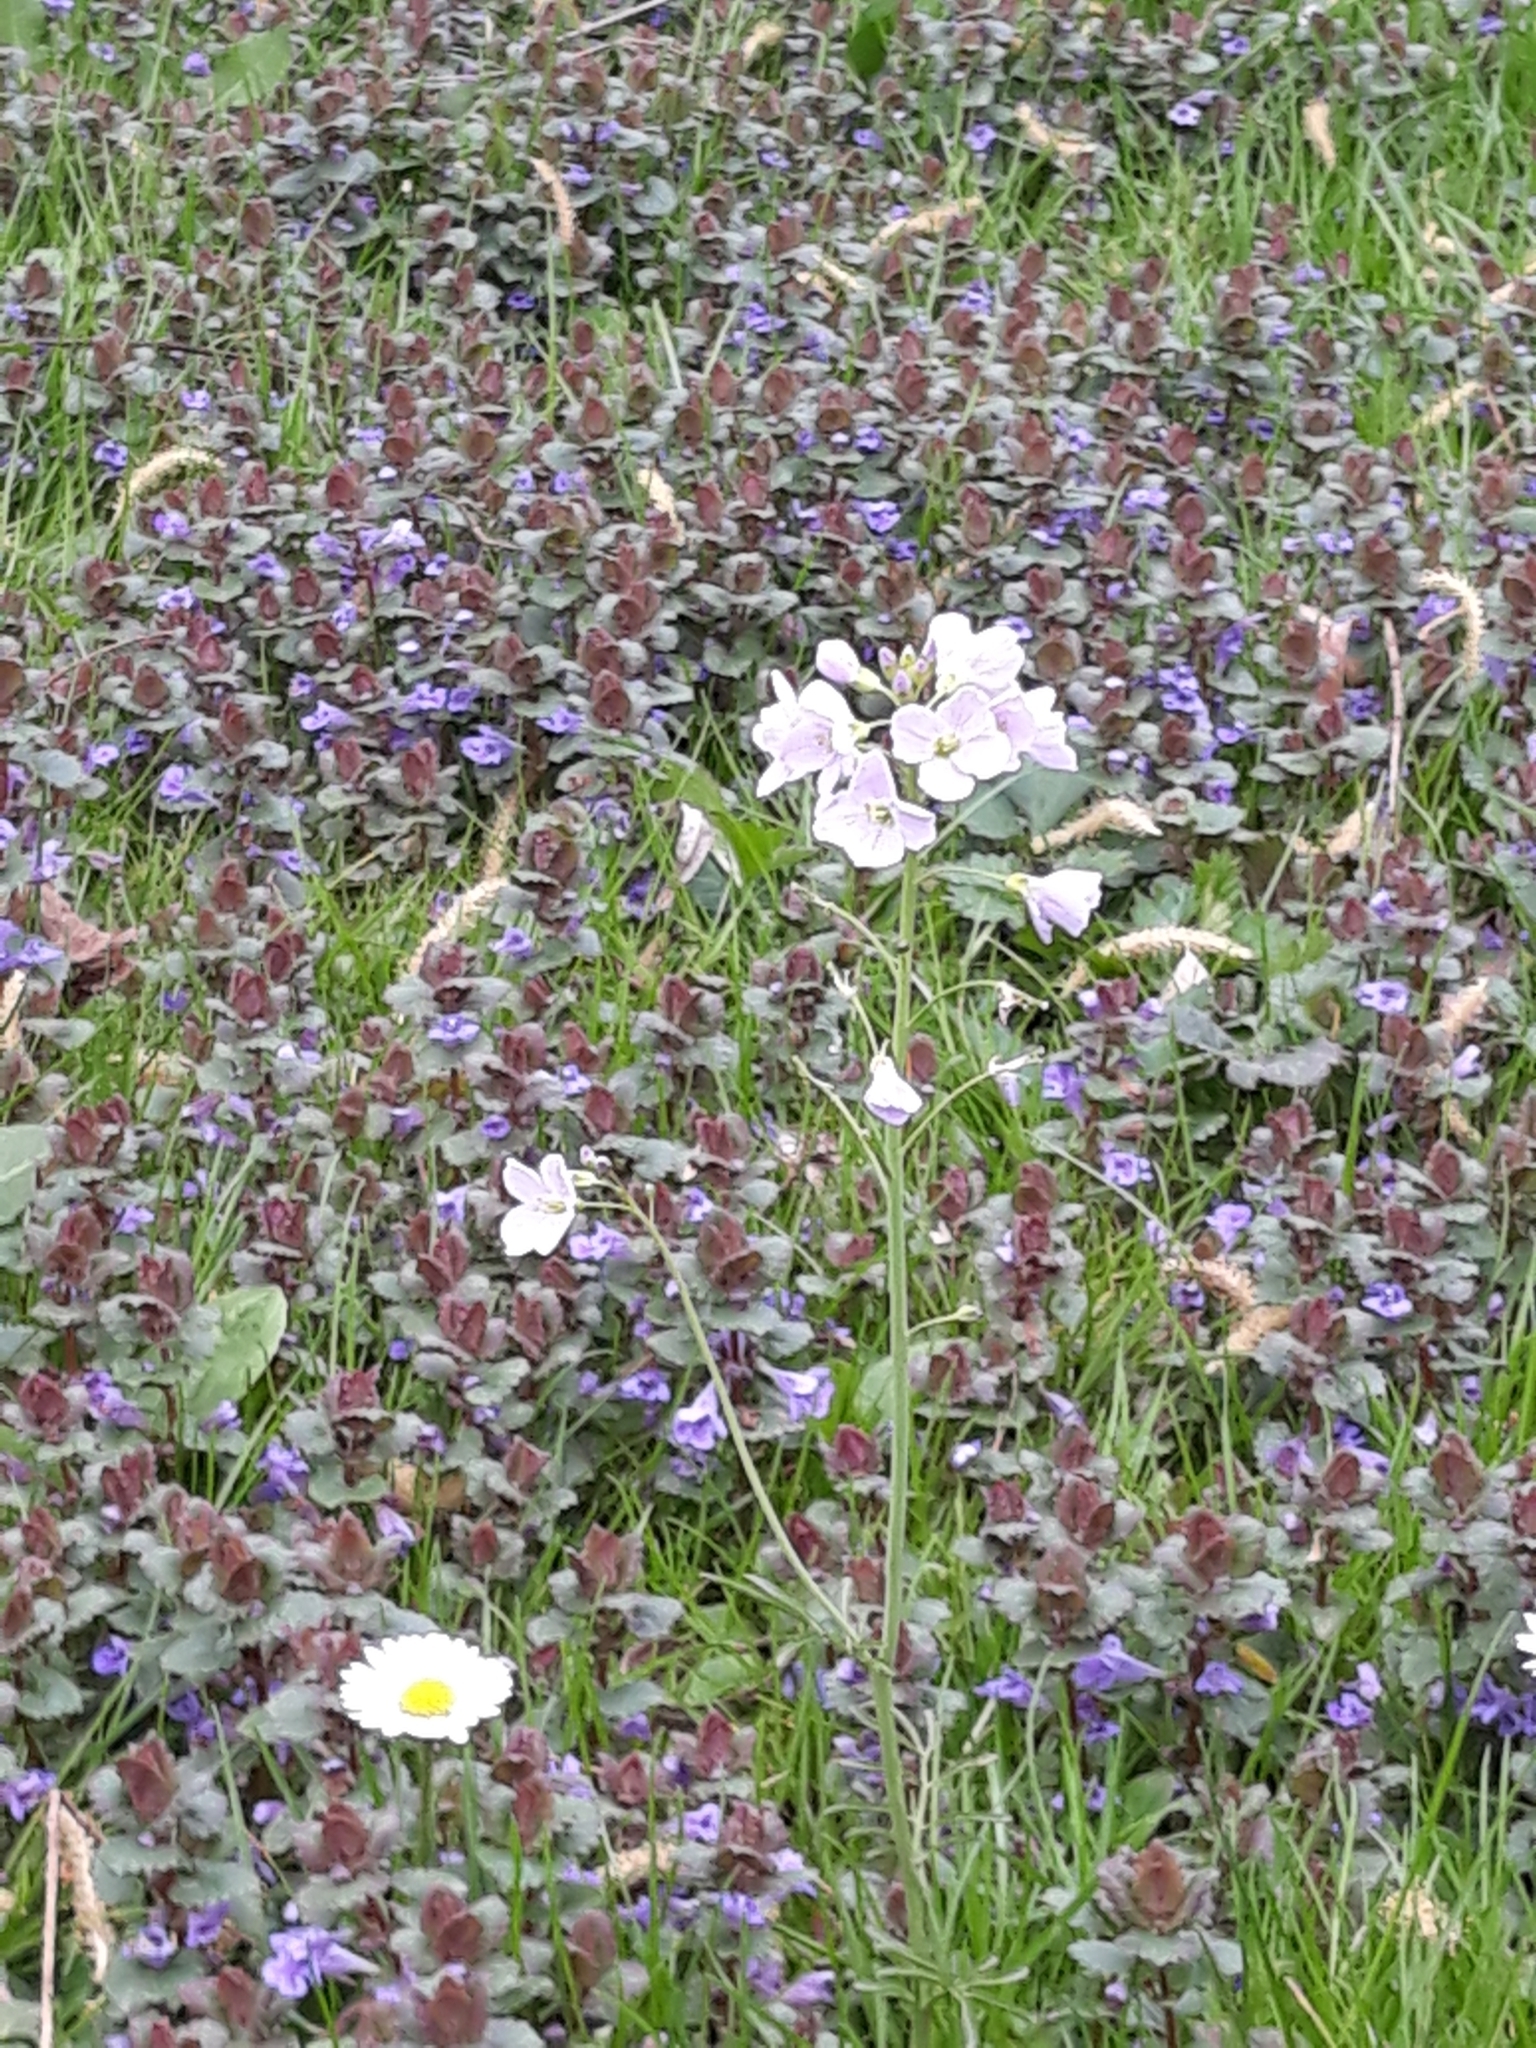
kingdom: Plantae
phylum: Tracheophyta
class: Magnoliopsida
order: Brassicales
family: Brassicaceae
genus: Cardamine
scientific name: Cardamine pratensis
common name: Cuckoo flower
